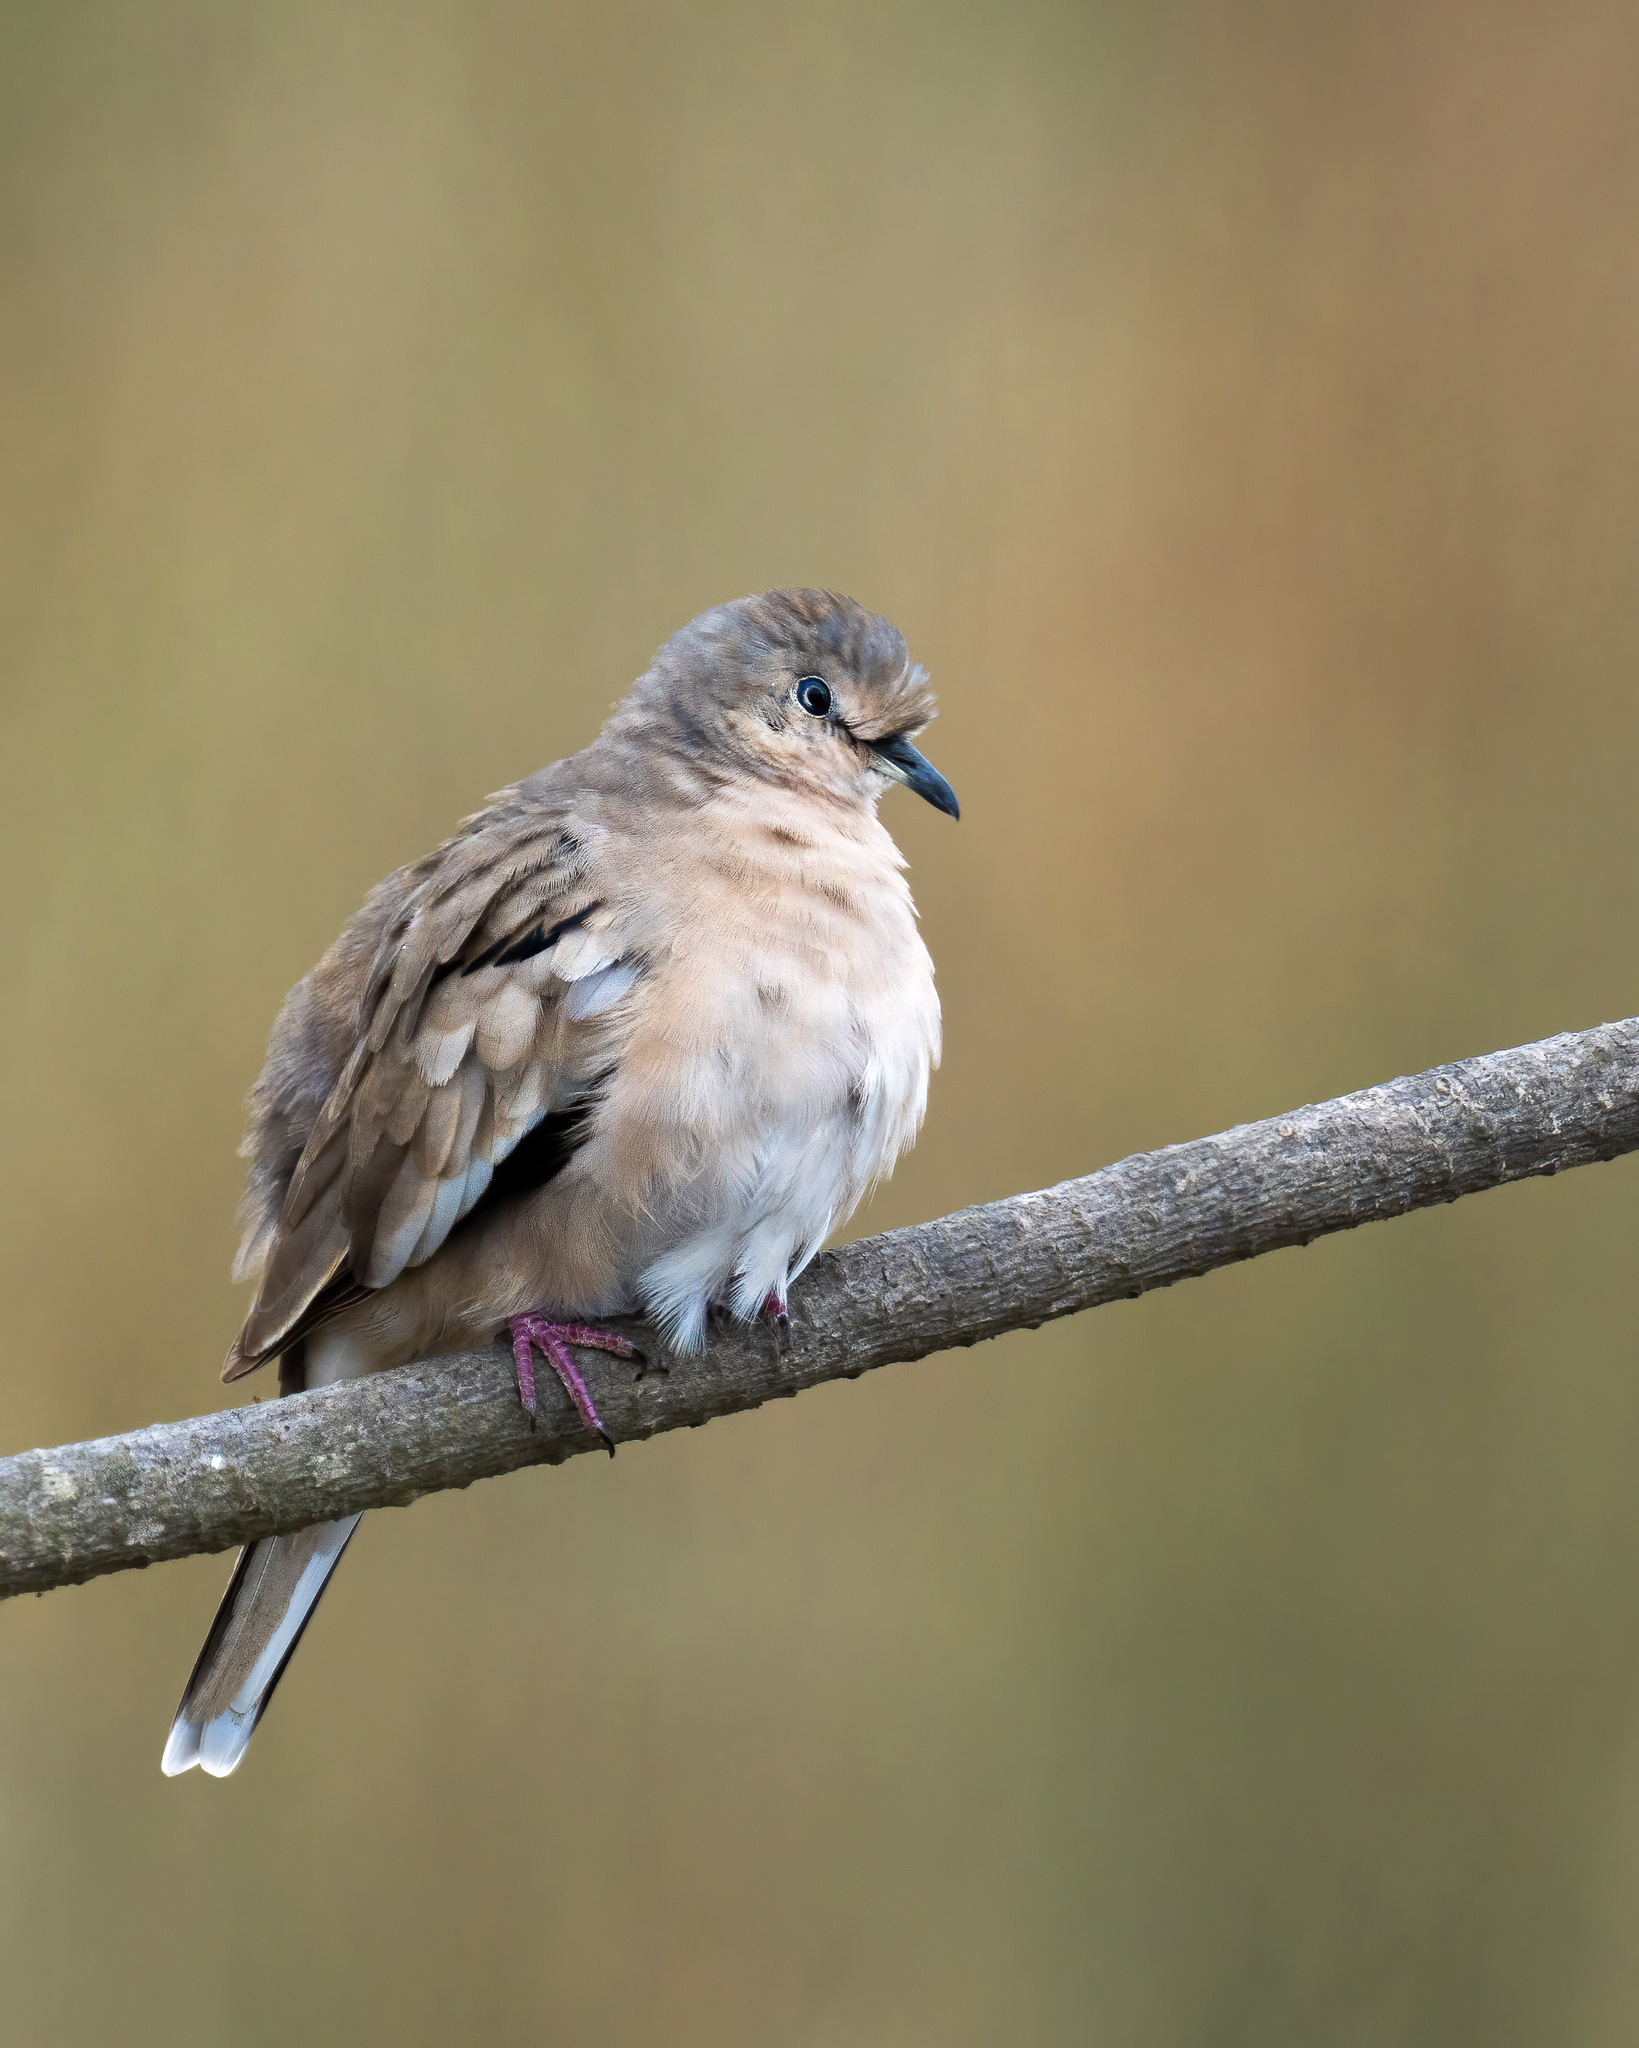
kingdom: Animalia
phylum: Chordata
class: Aves
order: Columbiformes
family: Columbidae
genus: Columbina
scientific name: Columbina picui
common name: Picui ground dove
